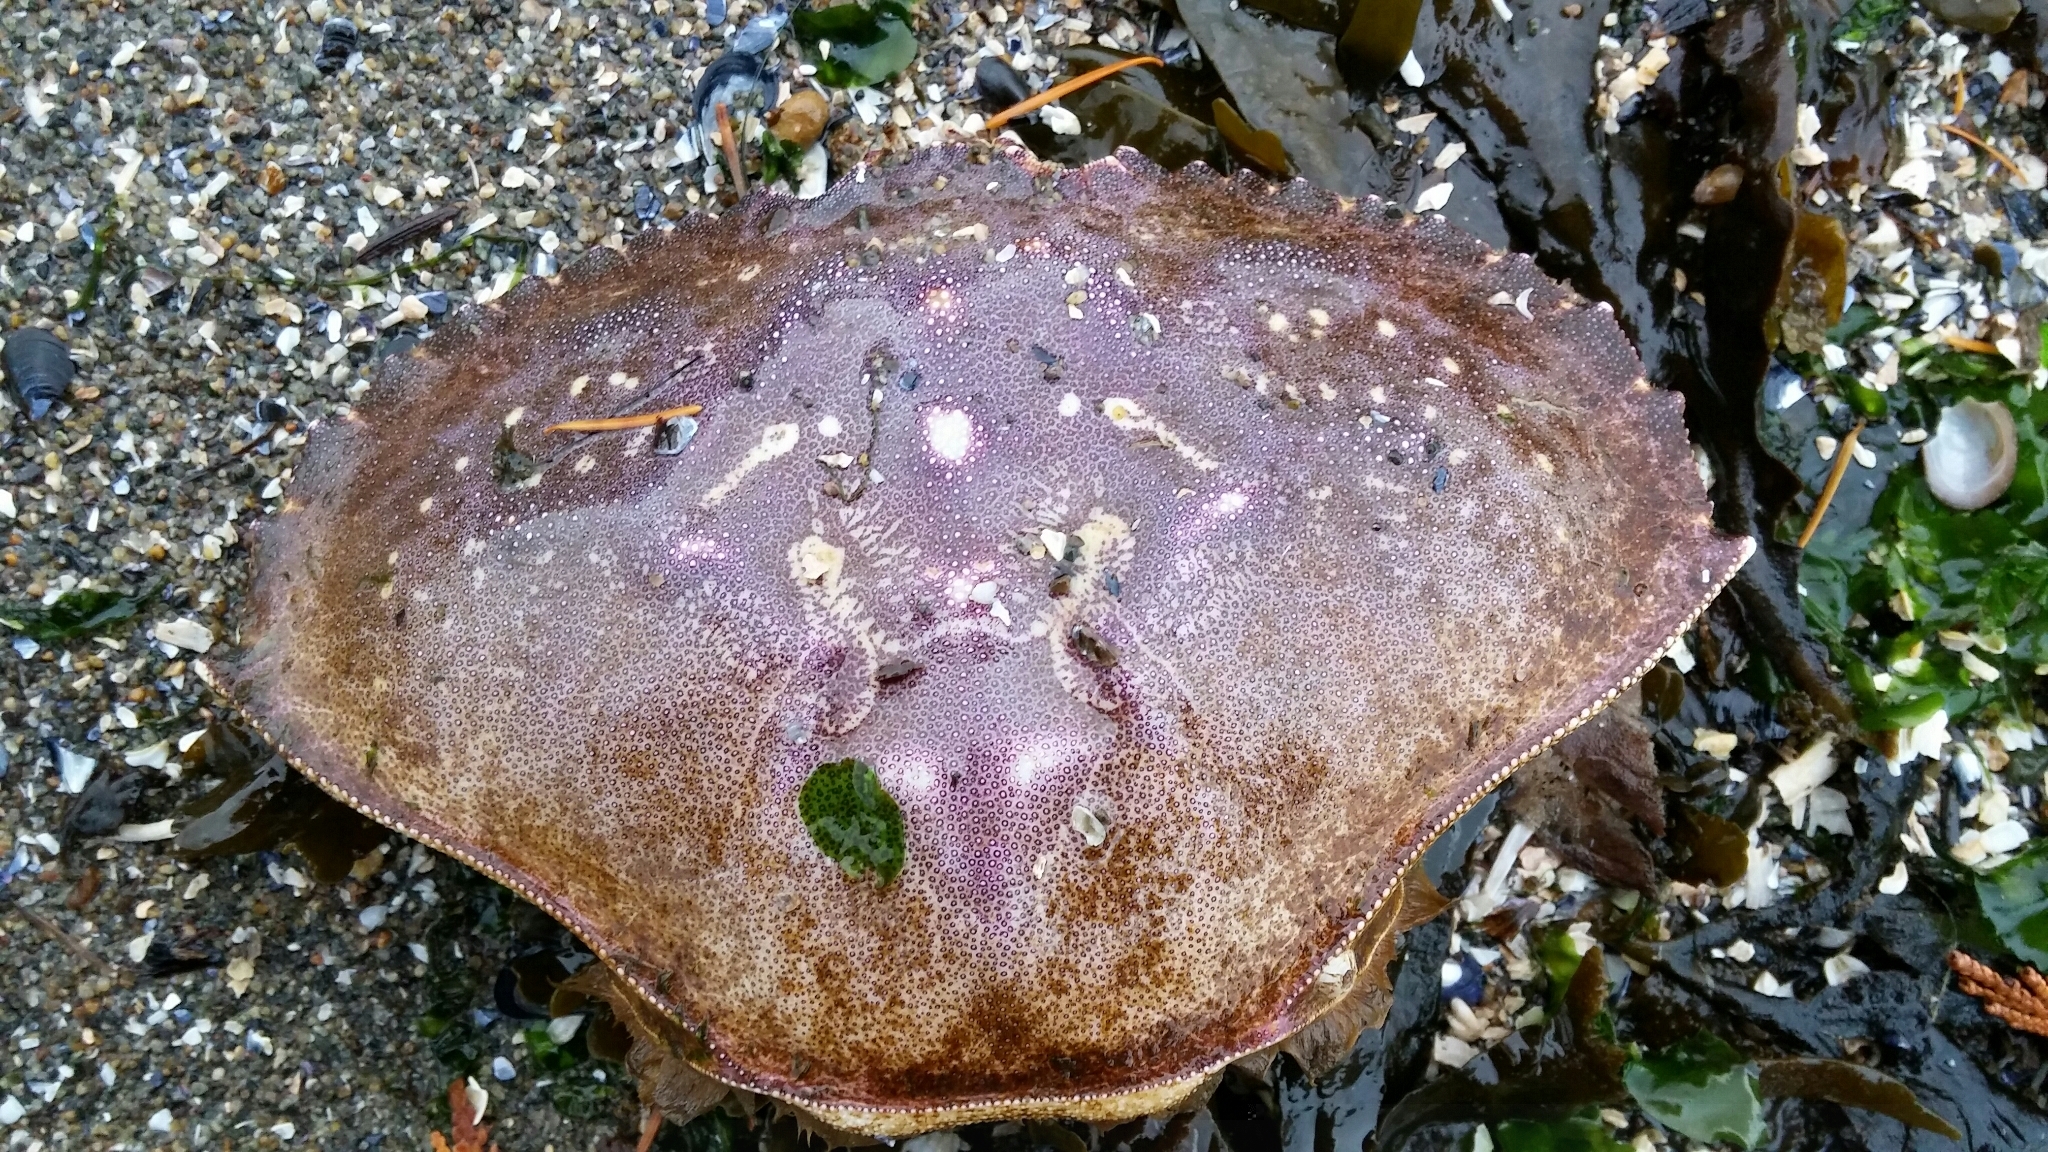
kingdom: Animalia
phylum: Arthropoda
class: Malacostraca
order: Decapoda
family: Cancridae
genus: Metacarcinus
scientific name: Metacarcinus magister
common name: Californian crab
